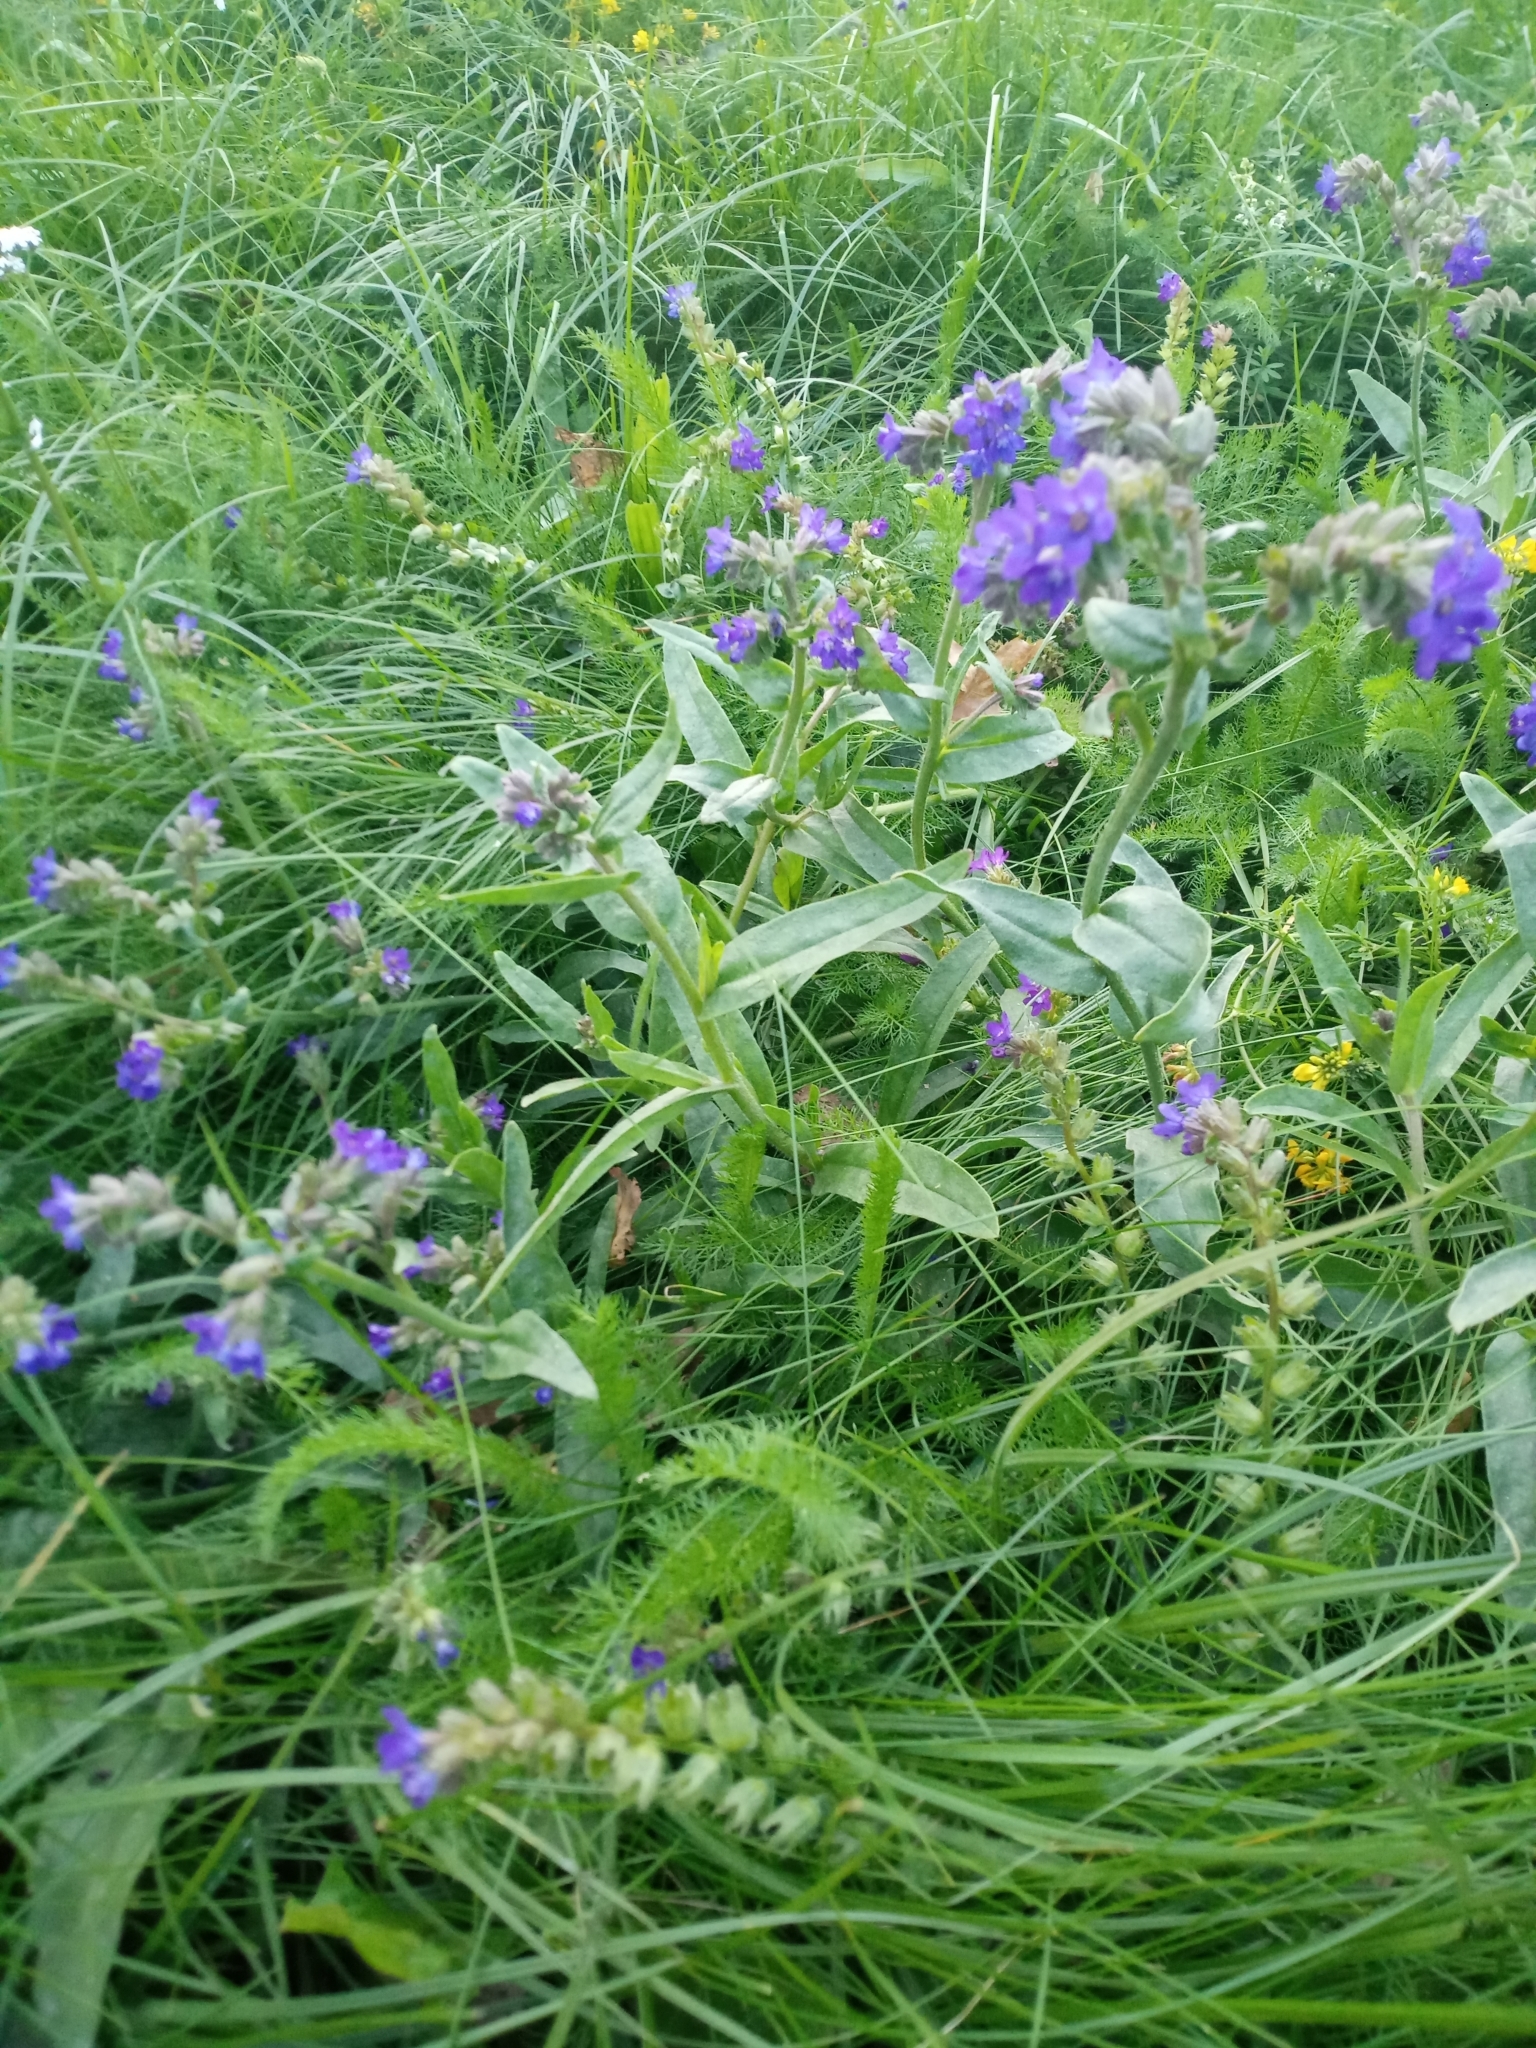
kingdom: Plantae
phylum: Tracheophyta
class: Magnoliopsida
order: Boraginales
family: Boraginaceae
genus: Anchusa
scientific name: Anchusa officinalis
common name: Alkanet
